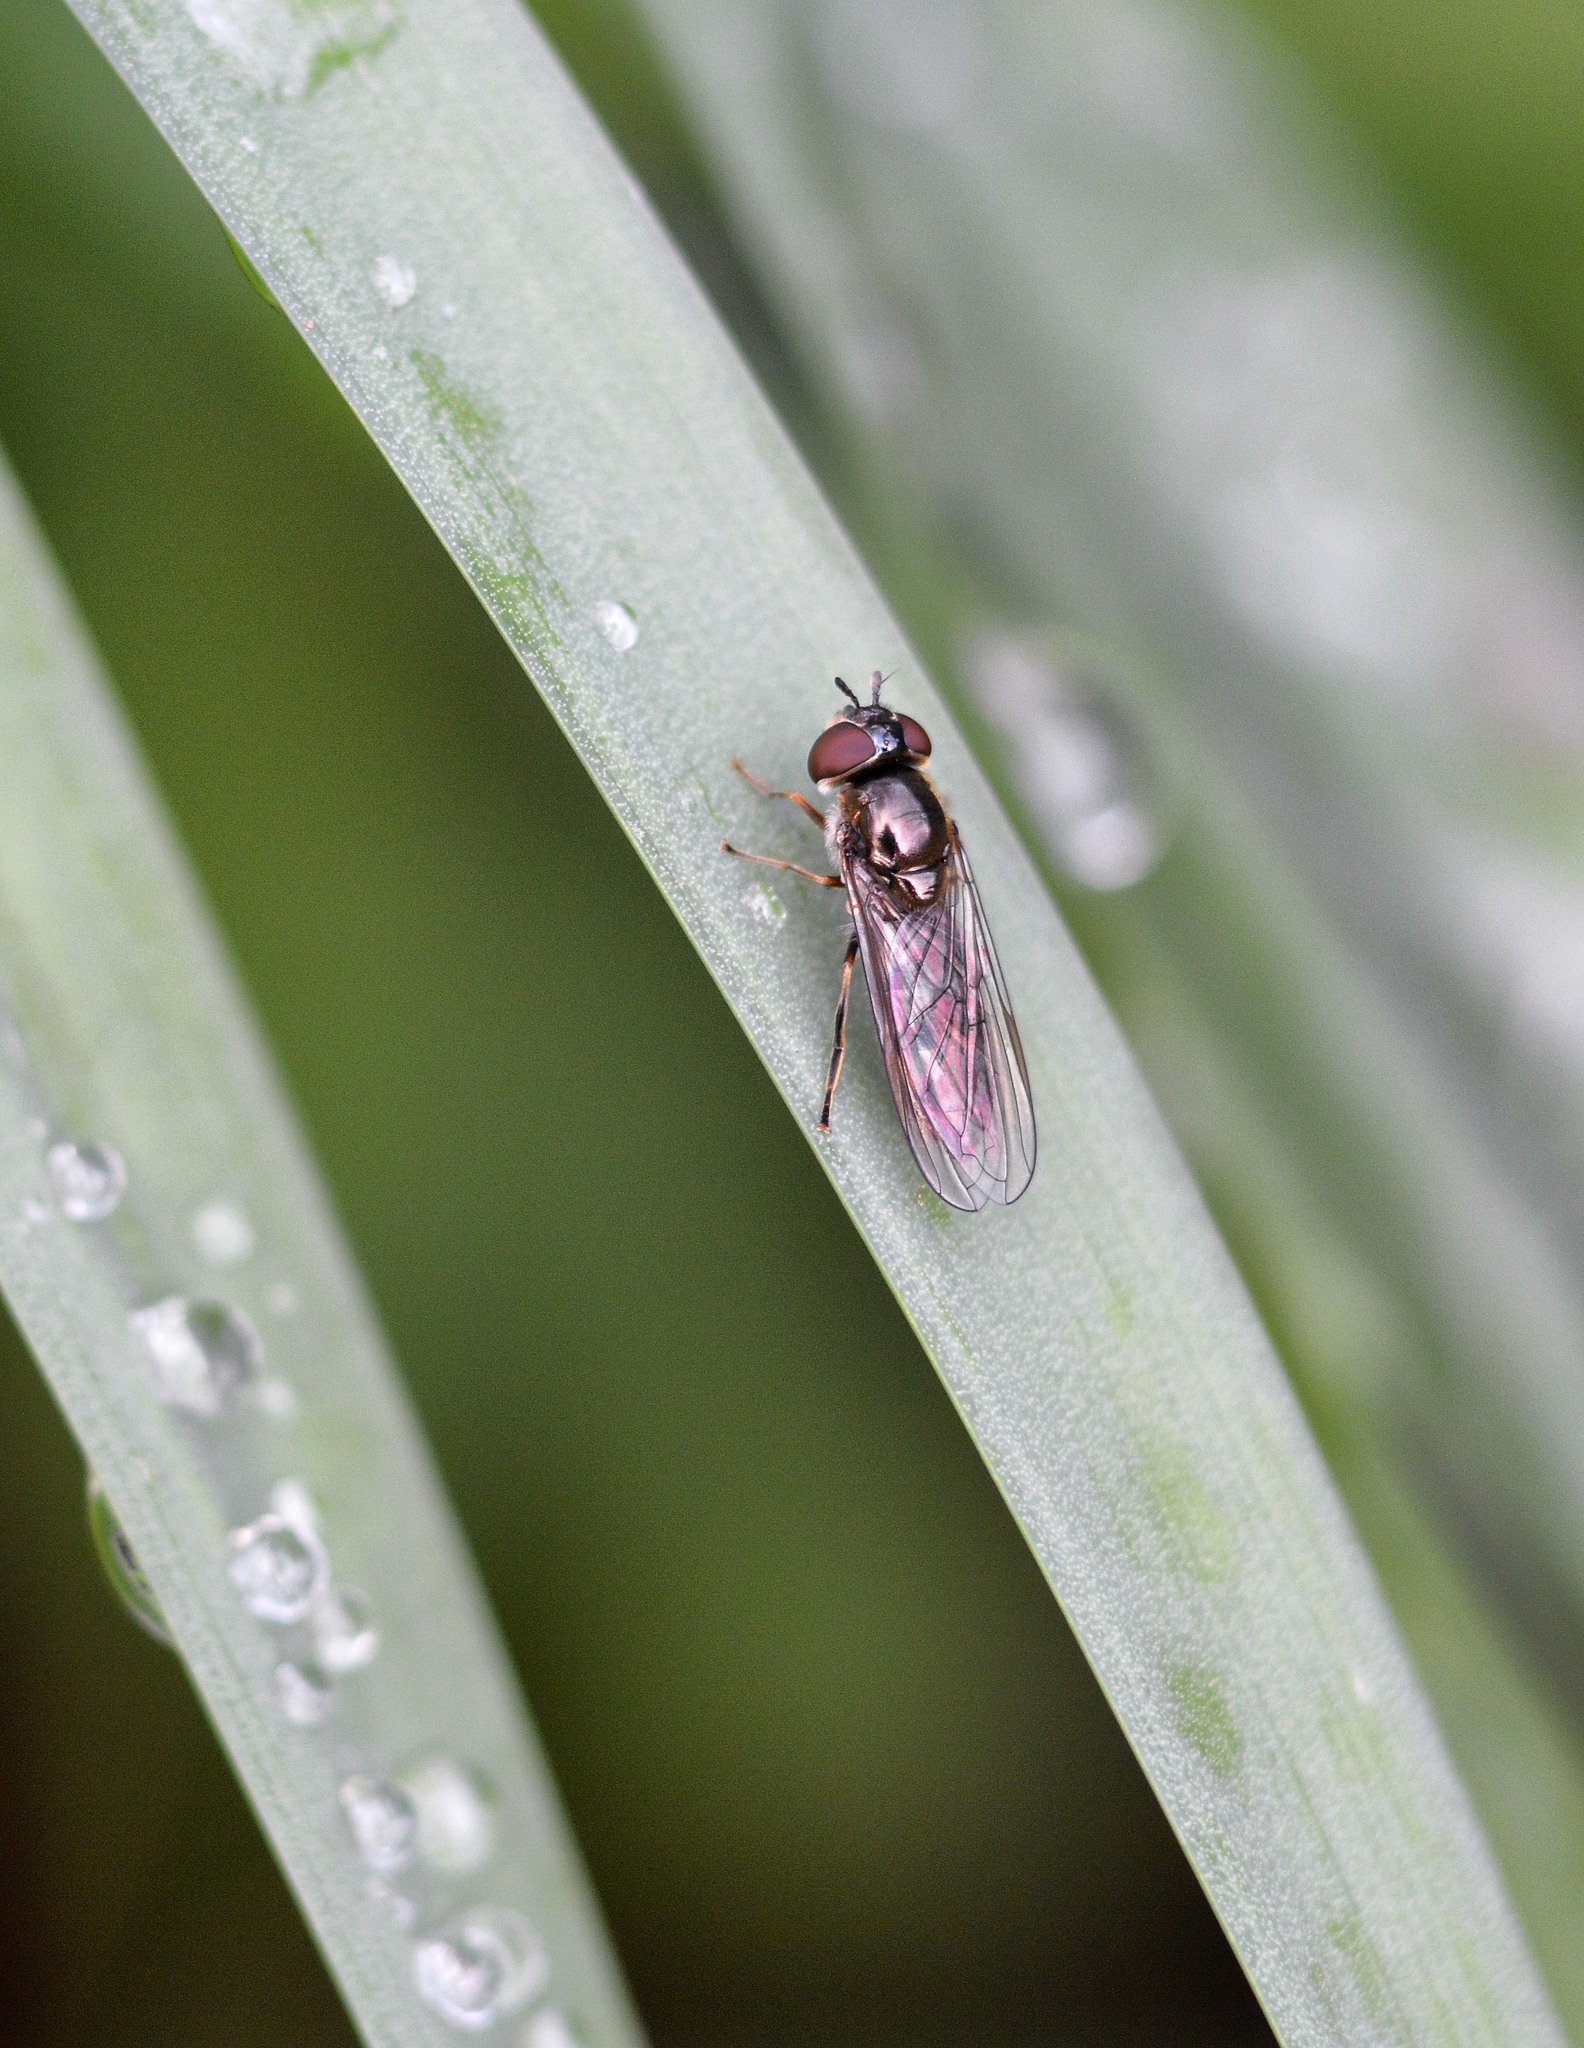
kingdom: Animalia
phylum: Arthropoda
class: Insecta
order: Diptera
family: Syrphidae
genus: Platycheirus
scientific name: Platycheirus albimanus
